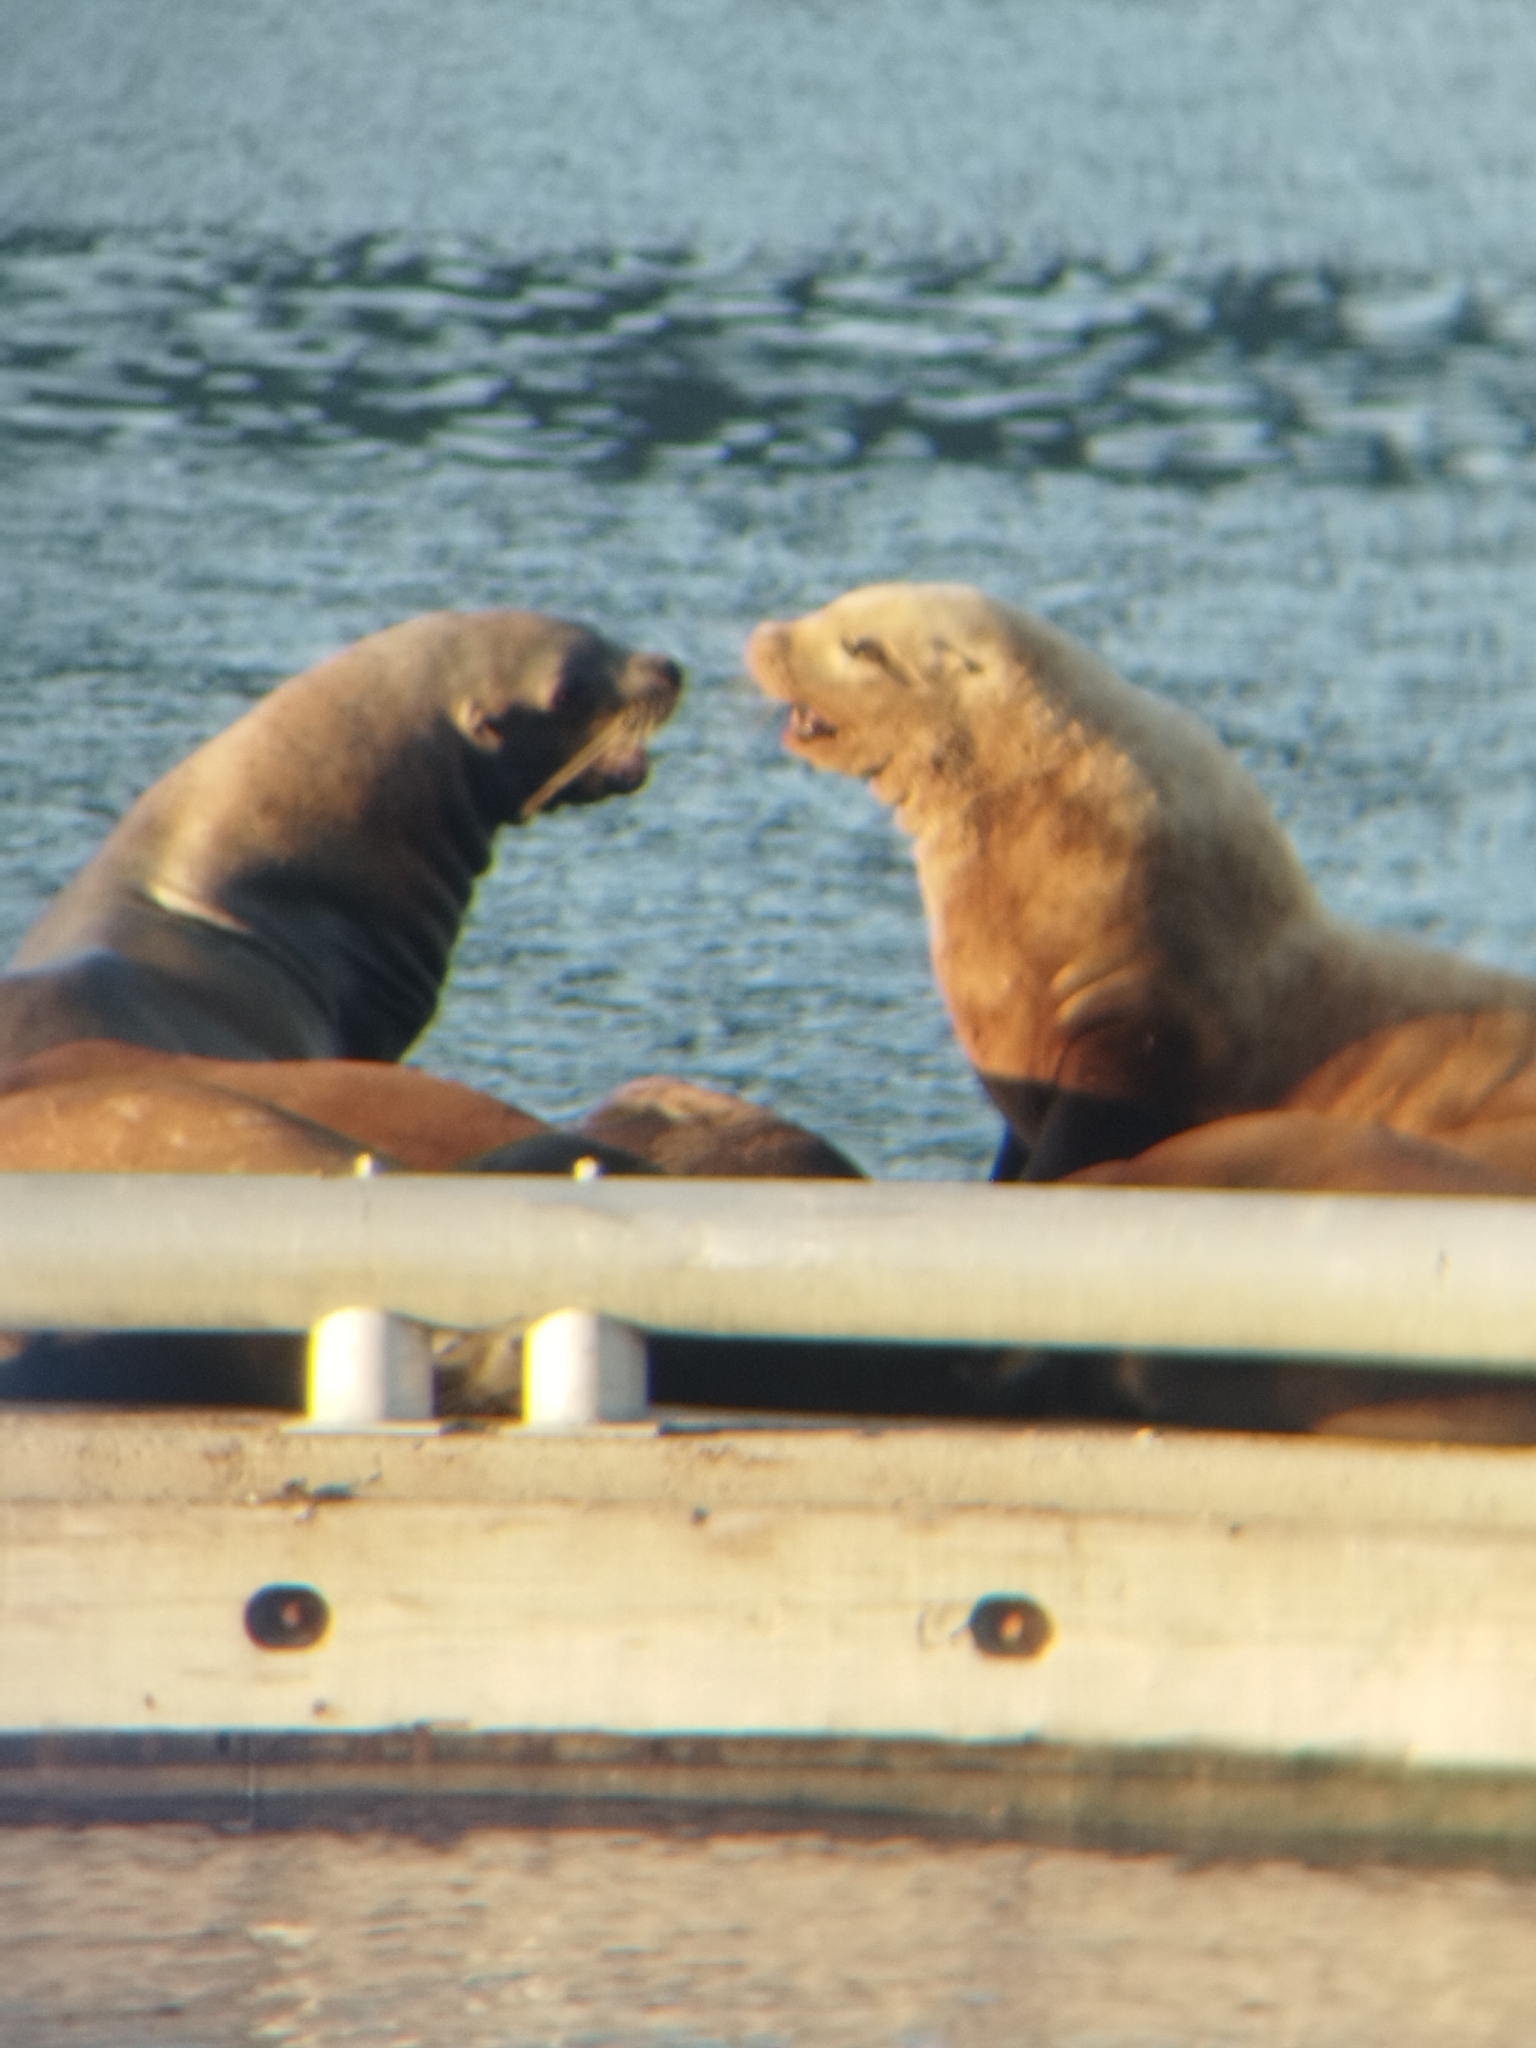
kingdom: Animalia
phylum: Chordata
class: Mammalia
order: Carnivora
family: Otariidae
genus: Eumetopias
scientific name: Eumetopias jubatus
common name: Steller sea lion
